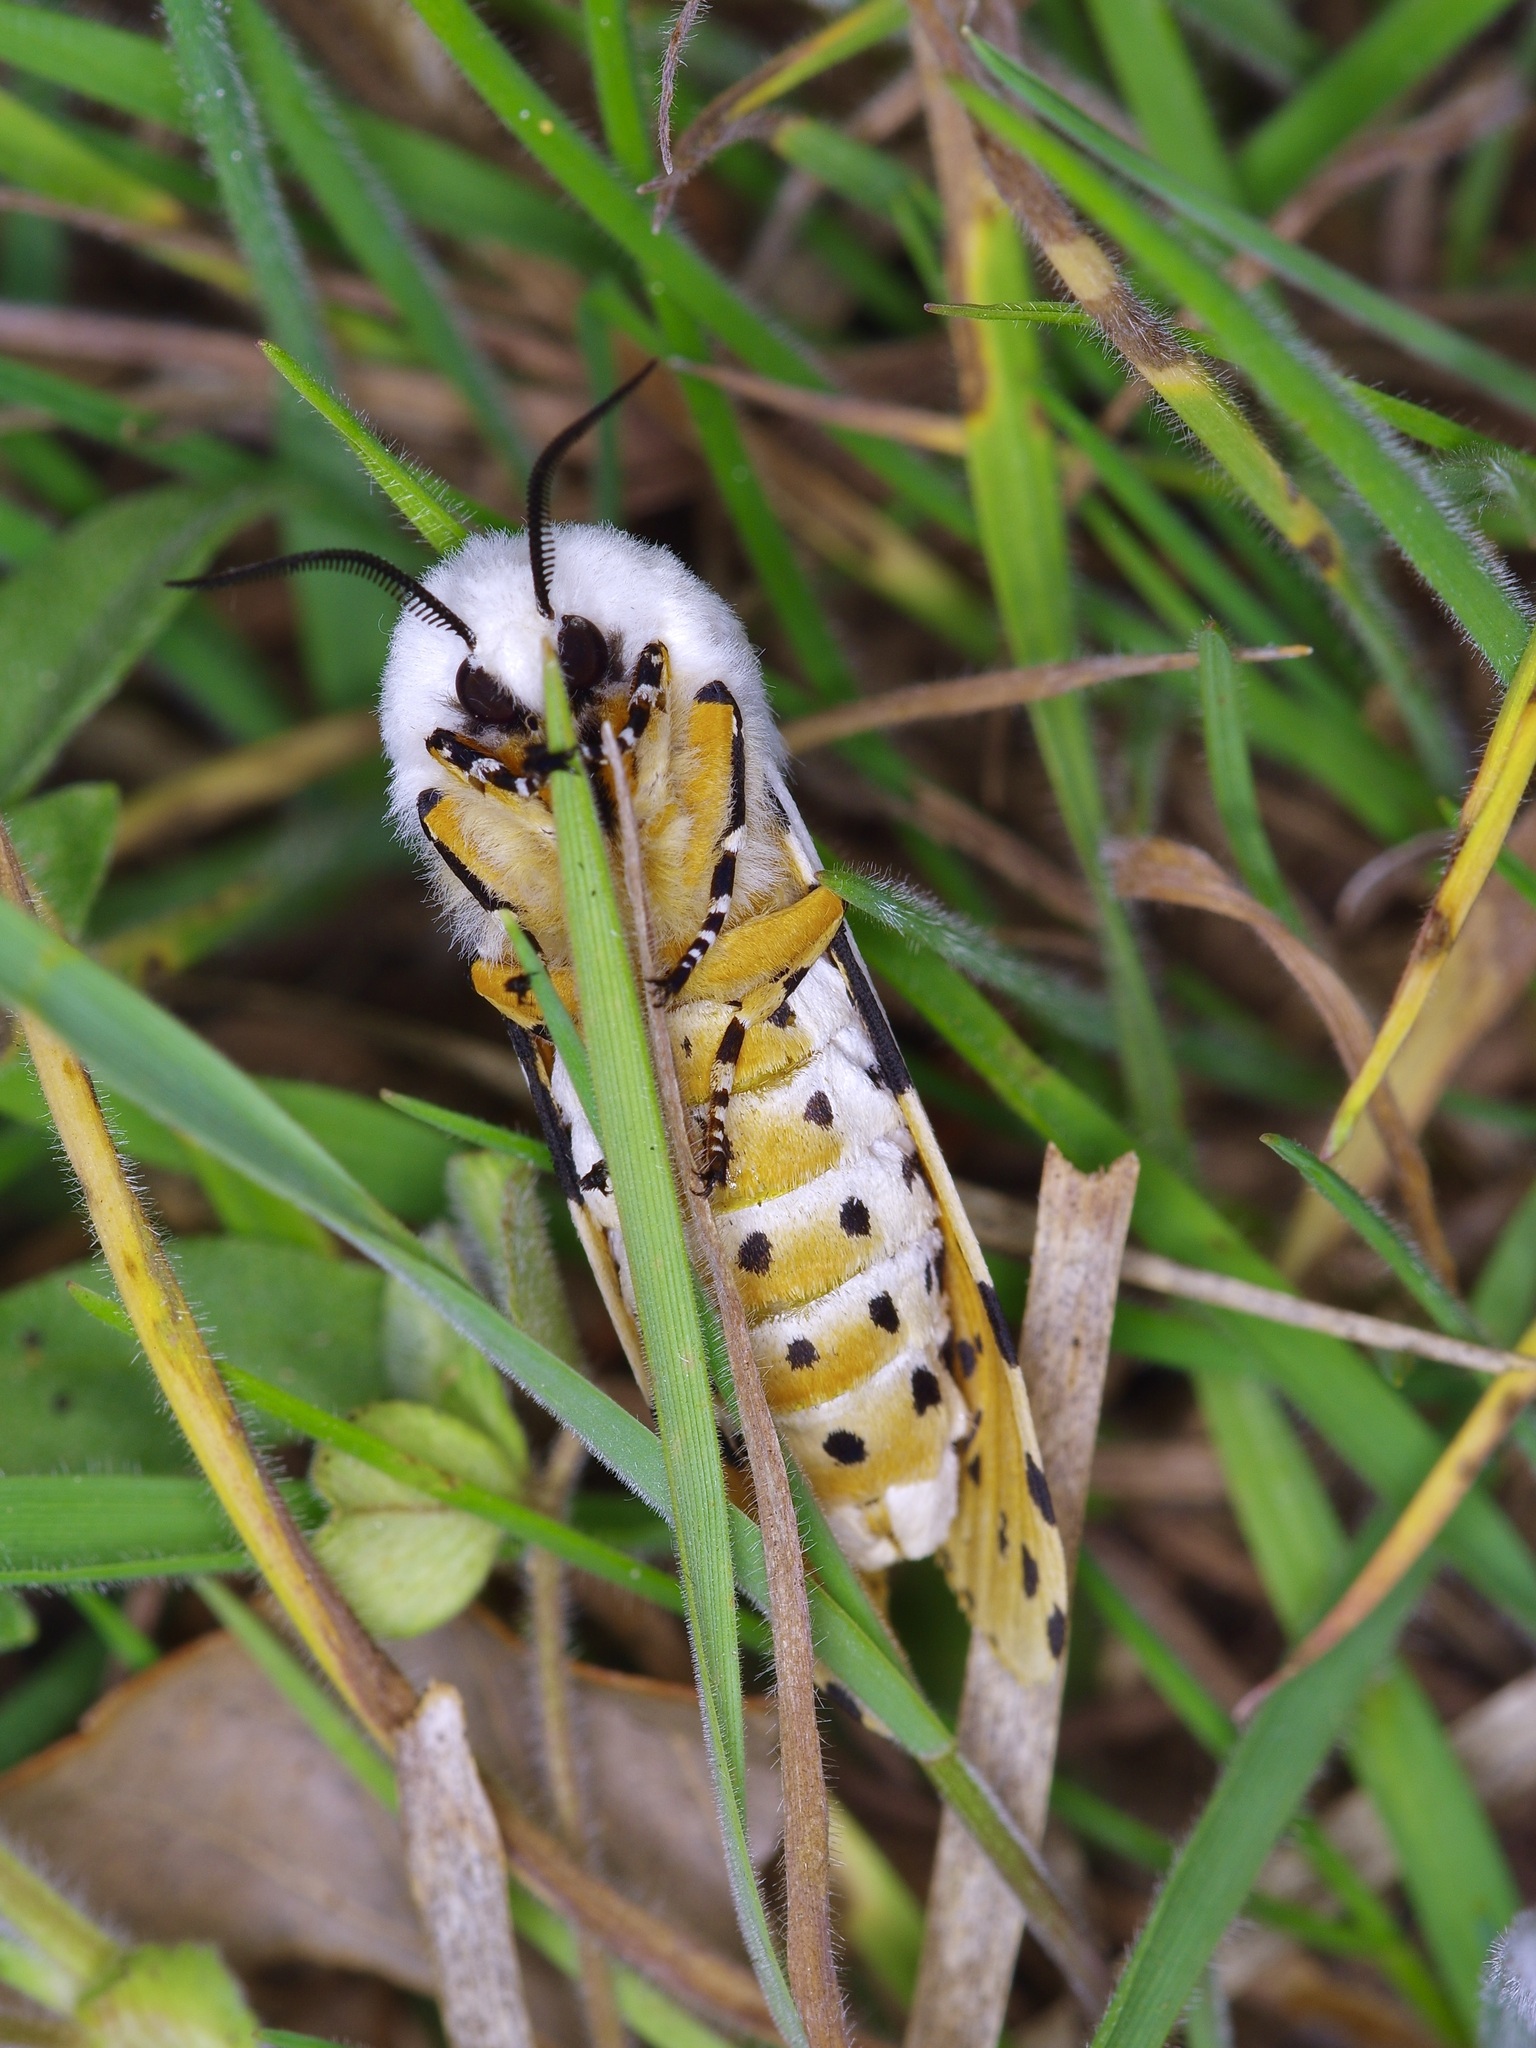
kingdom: Animalia
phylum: Arthropoda
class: Insecta
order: Lepidoptera
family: Erebidae
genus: Estigmene
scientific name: Estigmene acrea
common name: Salt marsh moth
